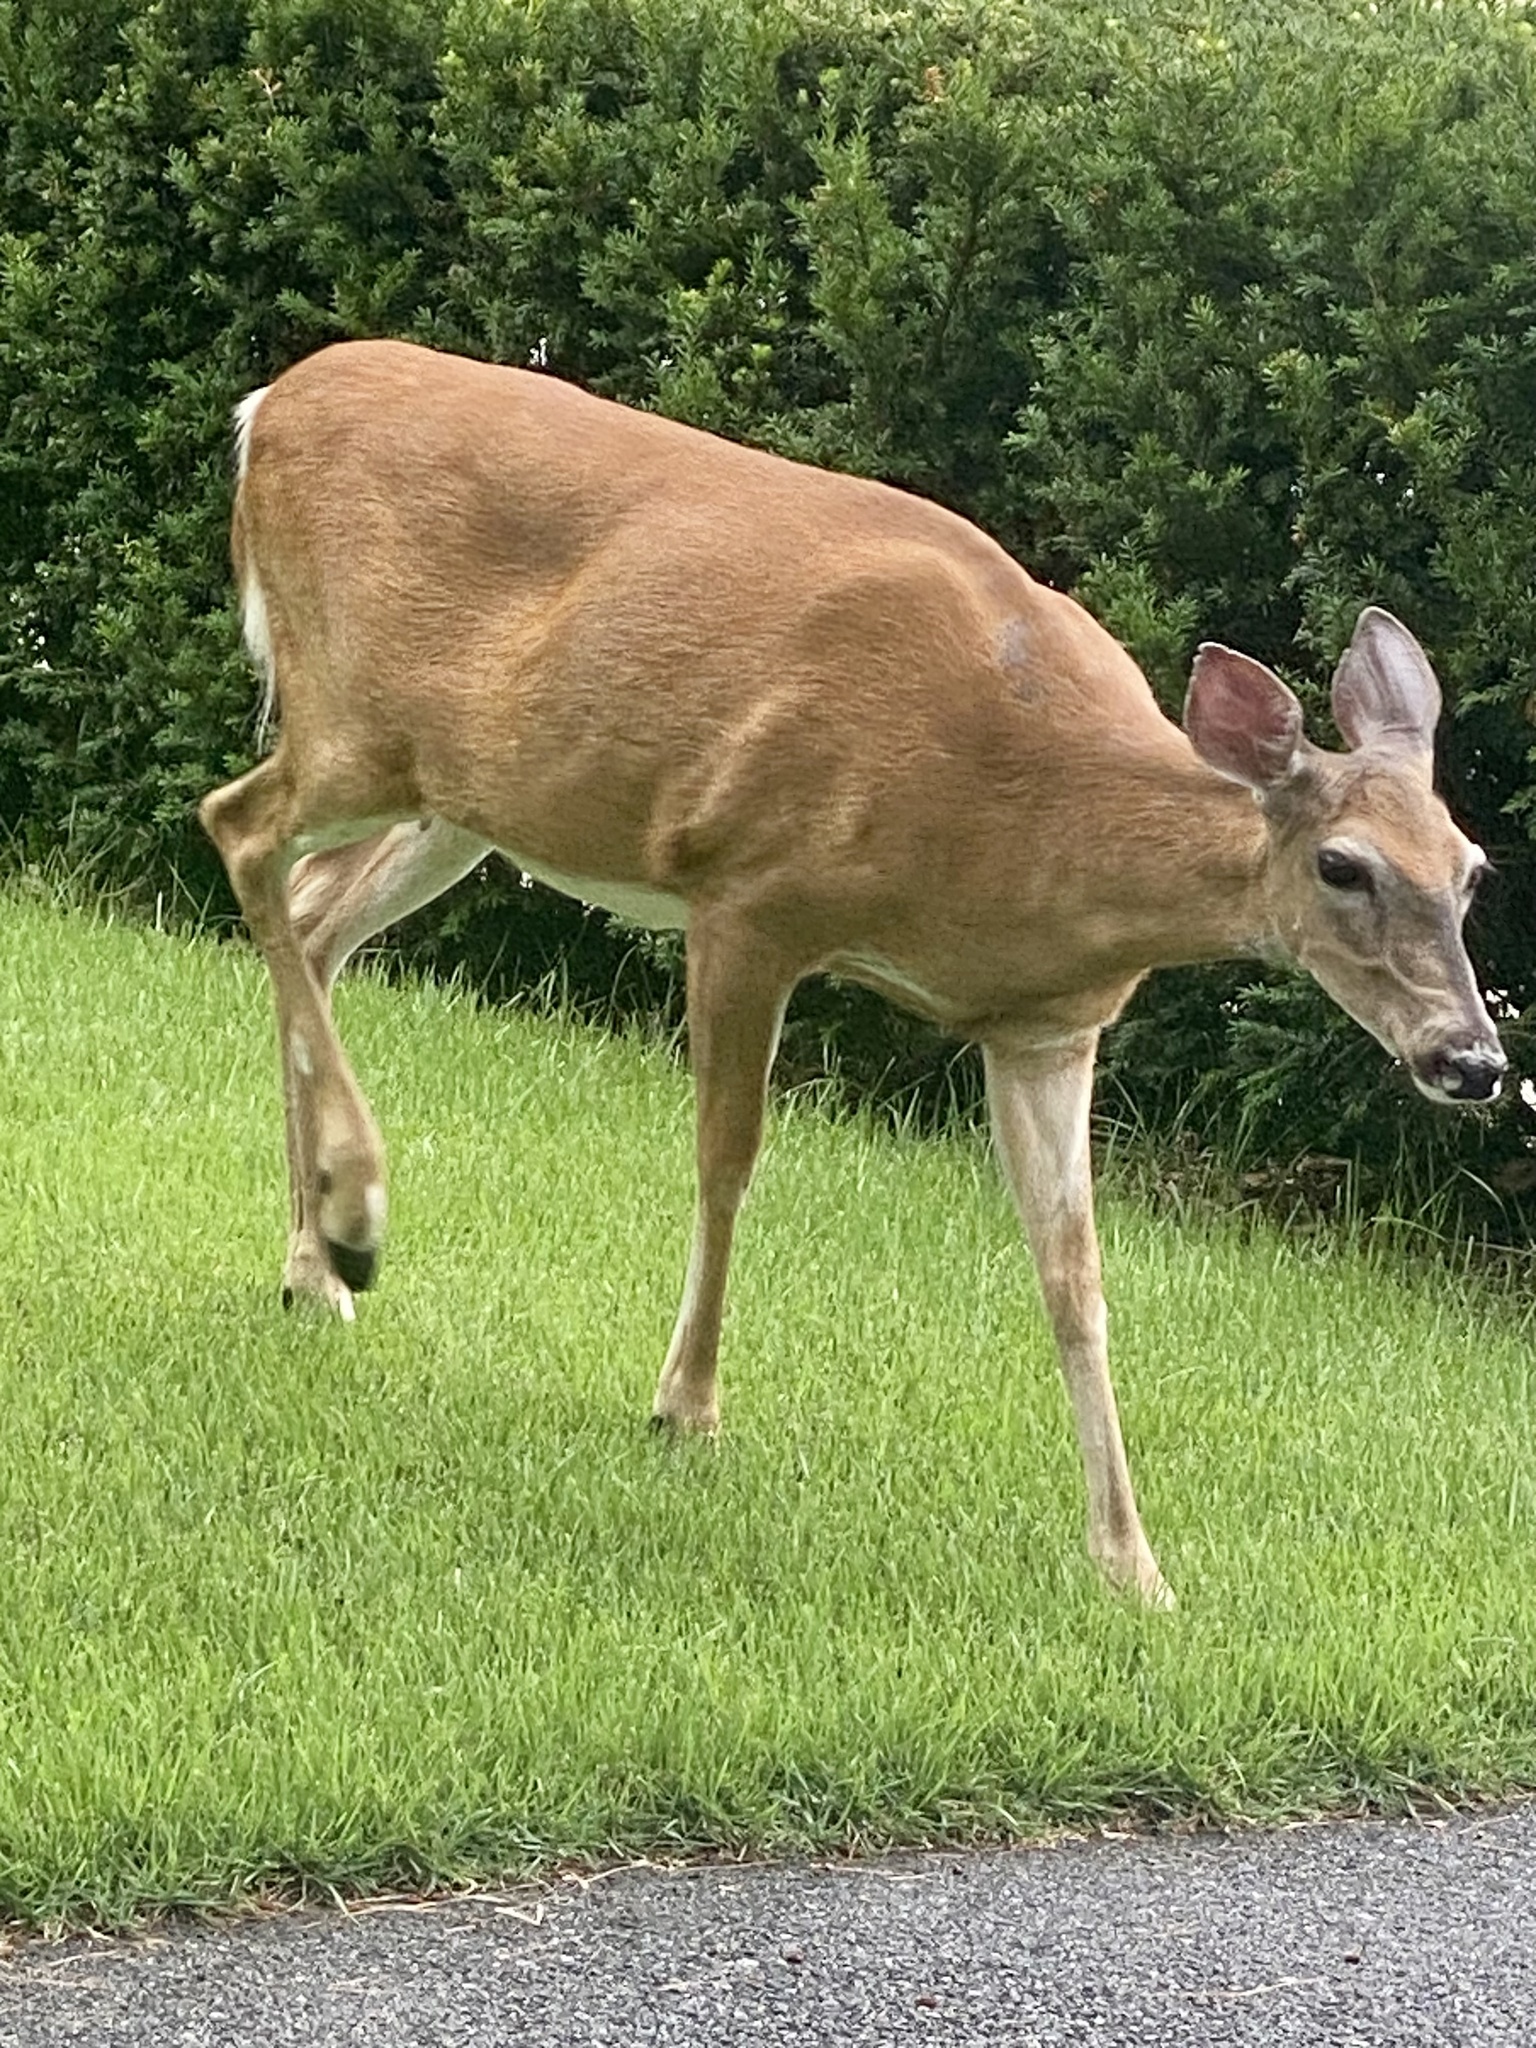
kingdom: Animalia
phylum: Chordata
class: Mammalia
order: Artiodactyla
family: Cervidae
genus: Odocoileus
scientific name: Odocoileus virginianus
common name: White-tailed deer
